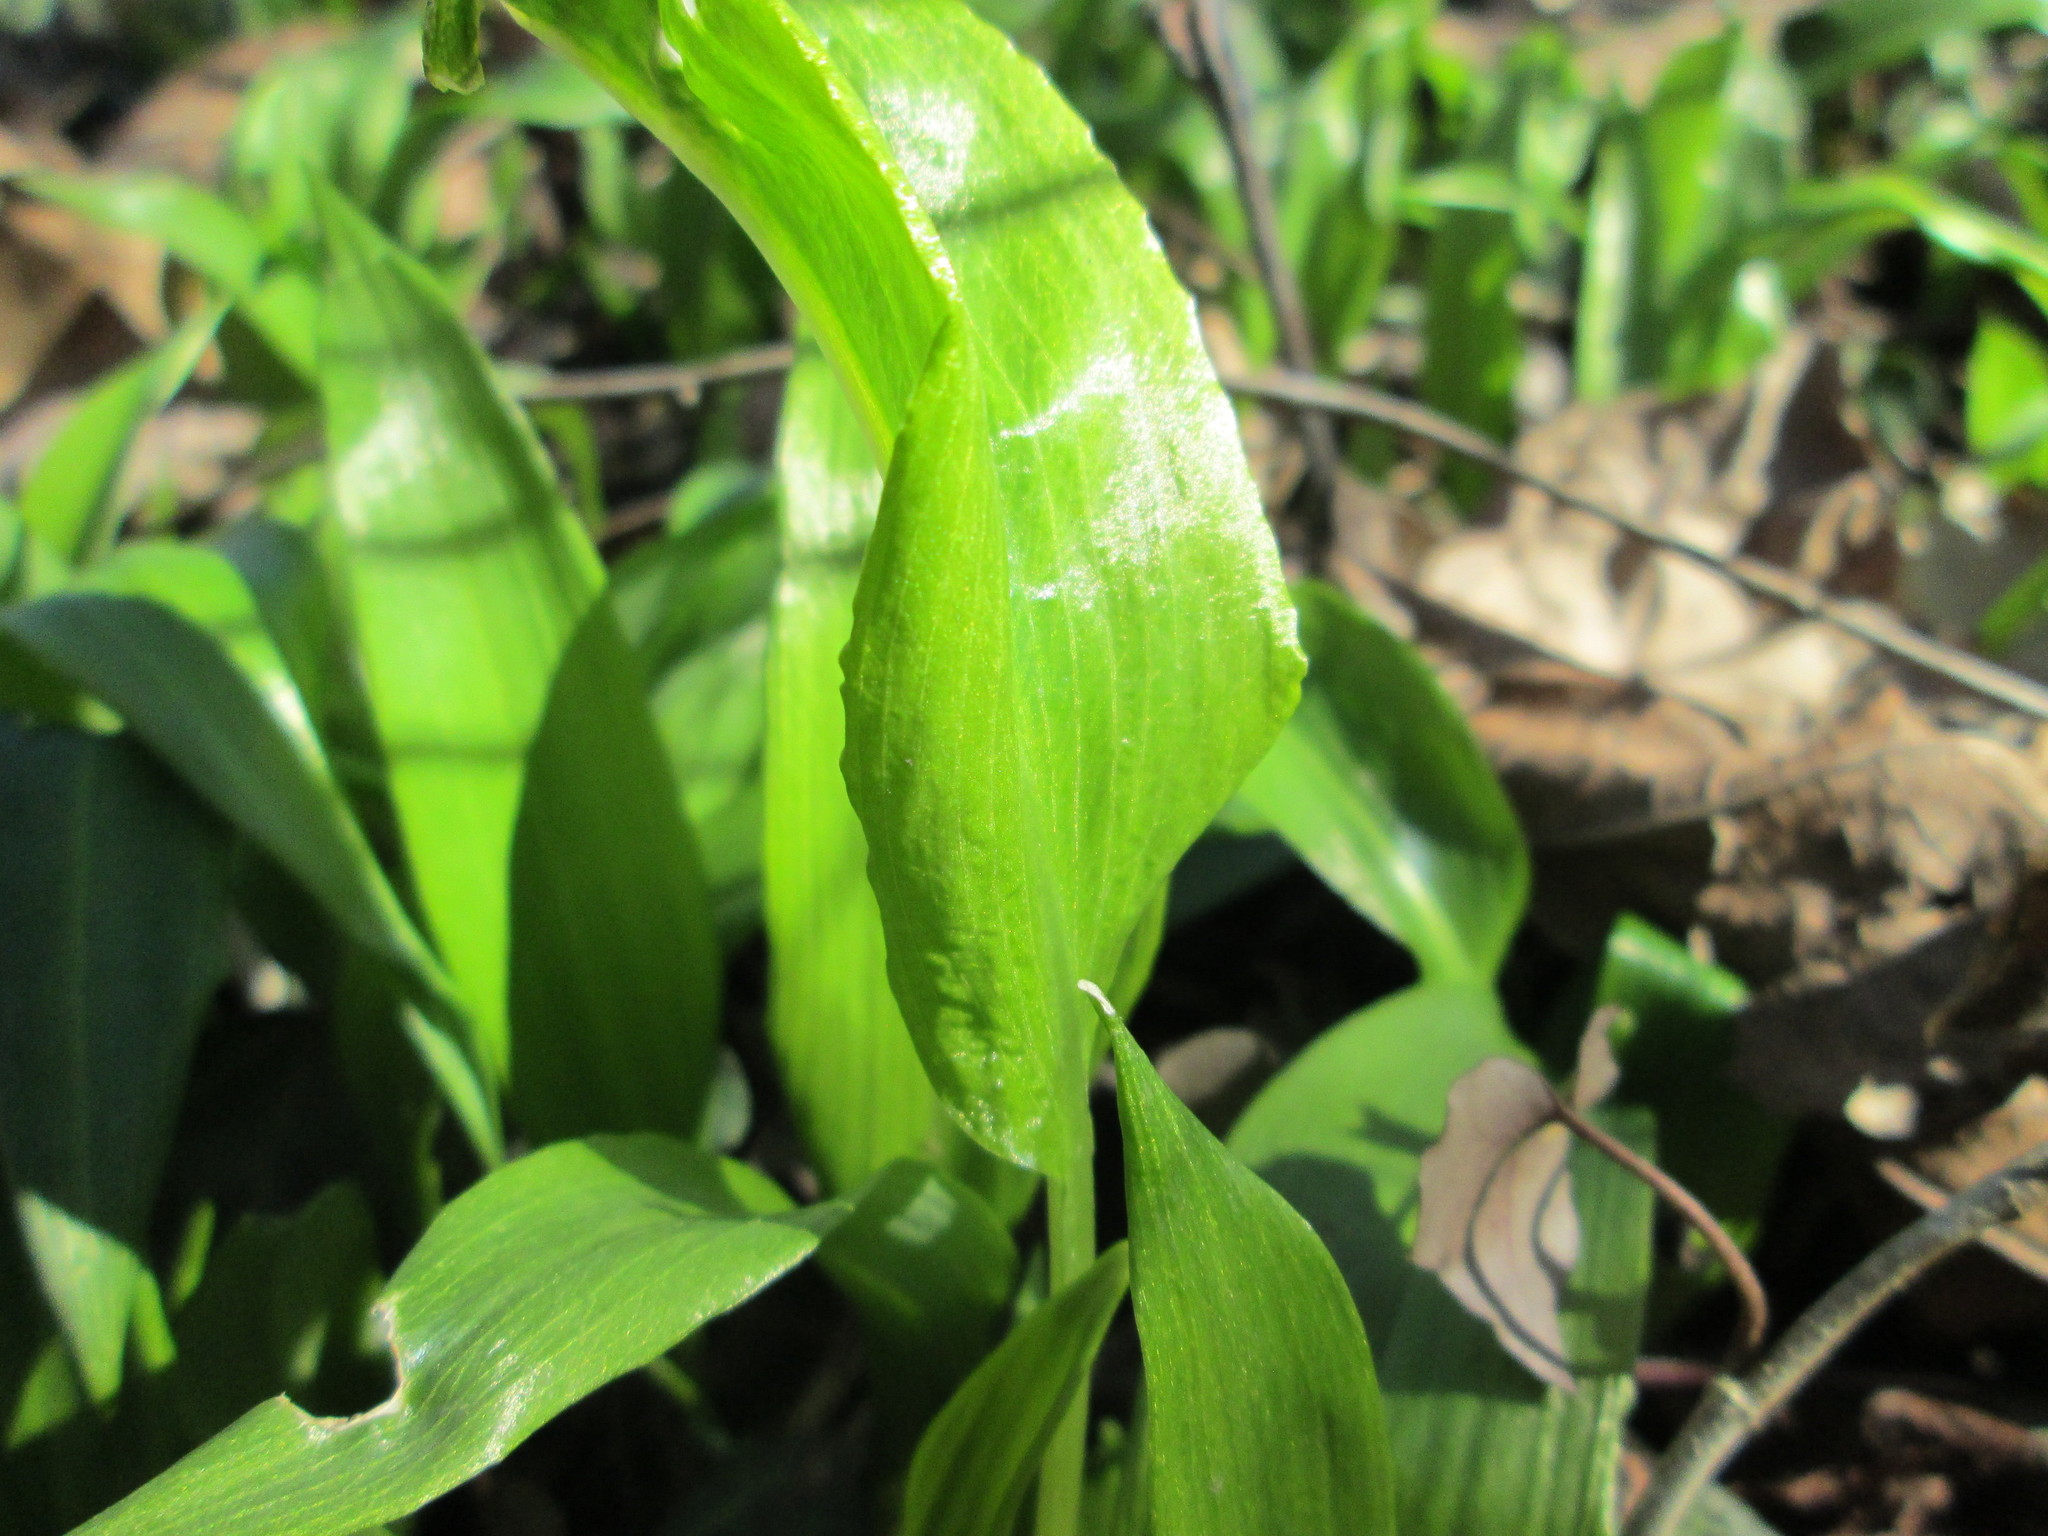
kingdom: Plantae
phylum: Tracheophyta
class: Liliopsida
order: Asparagales
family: Amaryllidaceae
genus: Allium
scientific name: Allium ursinum
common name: Ramsons
